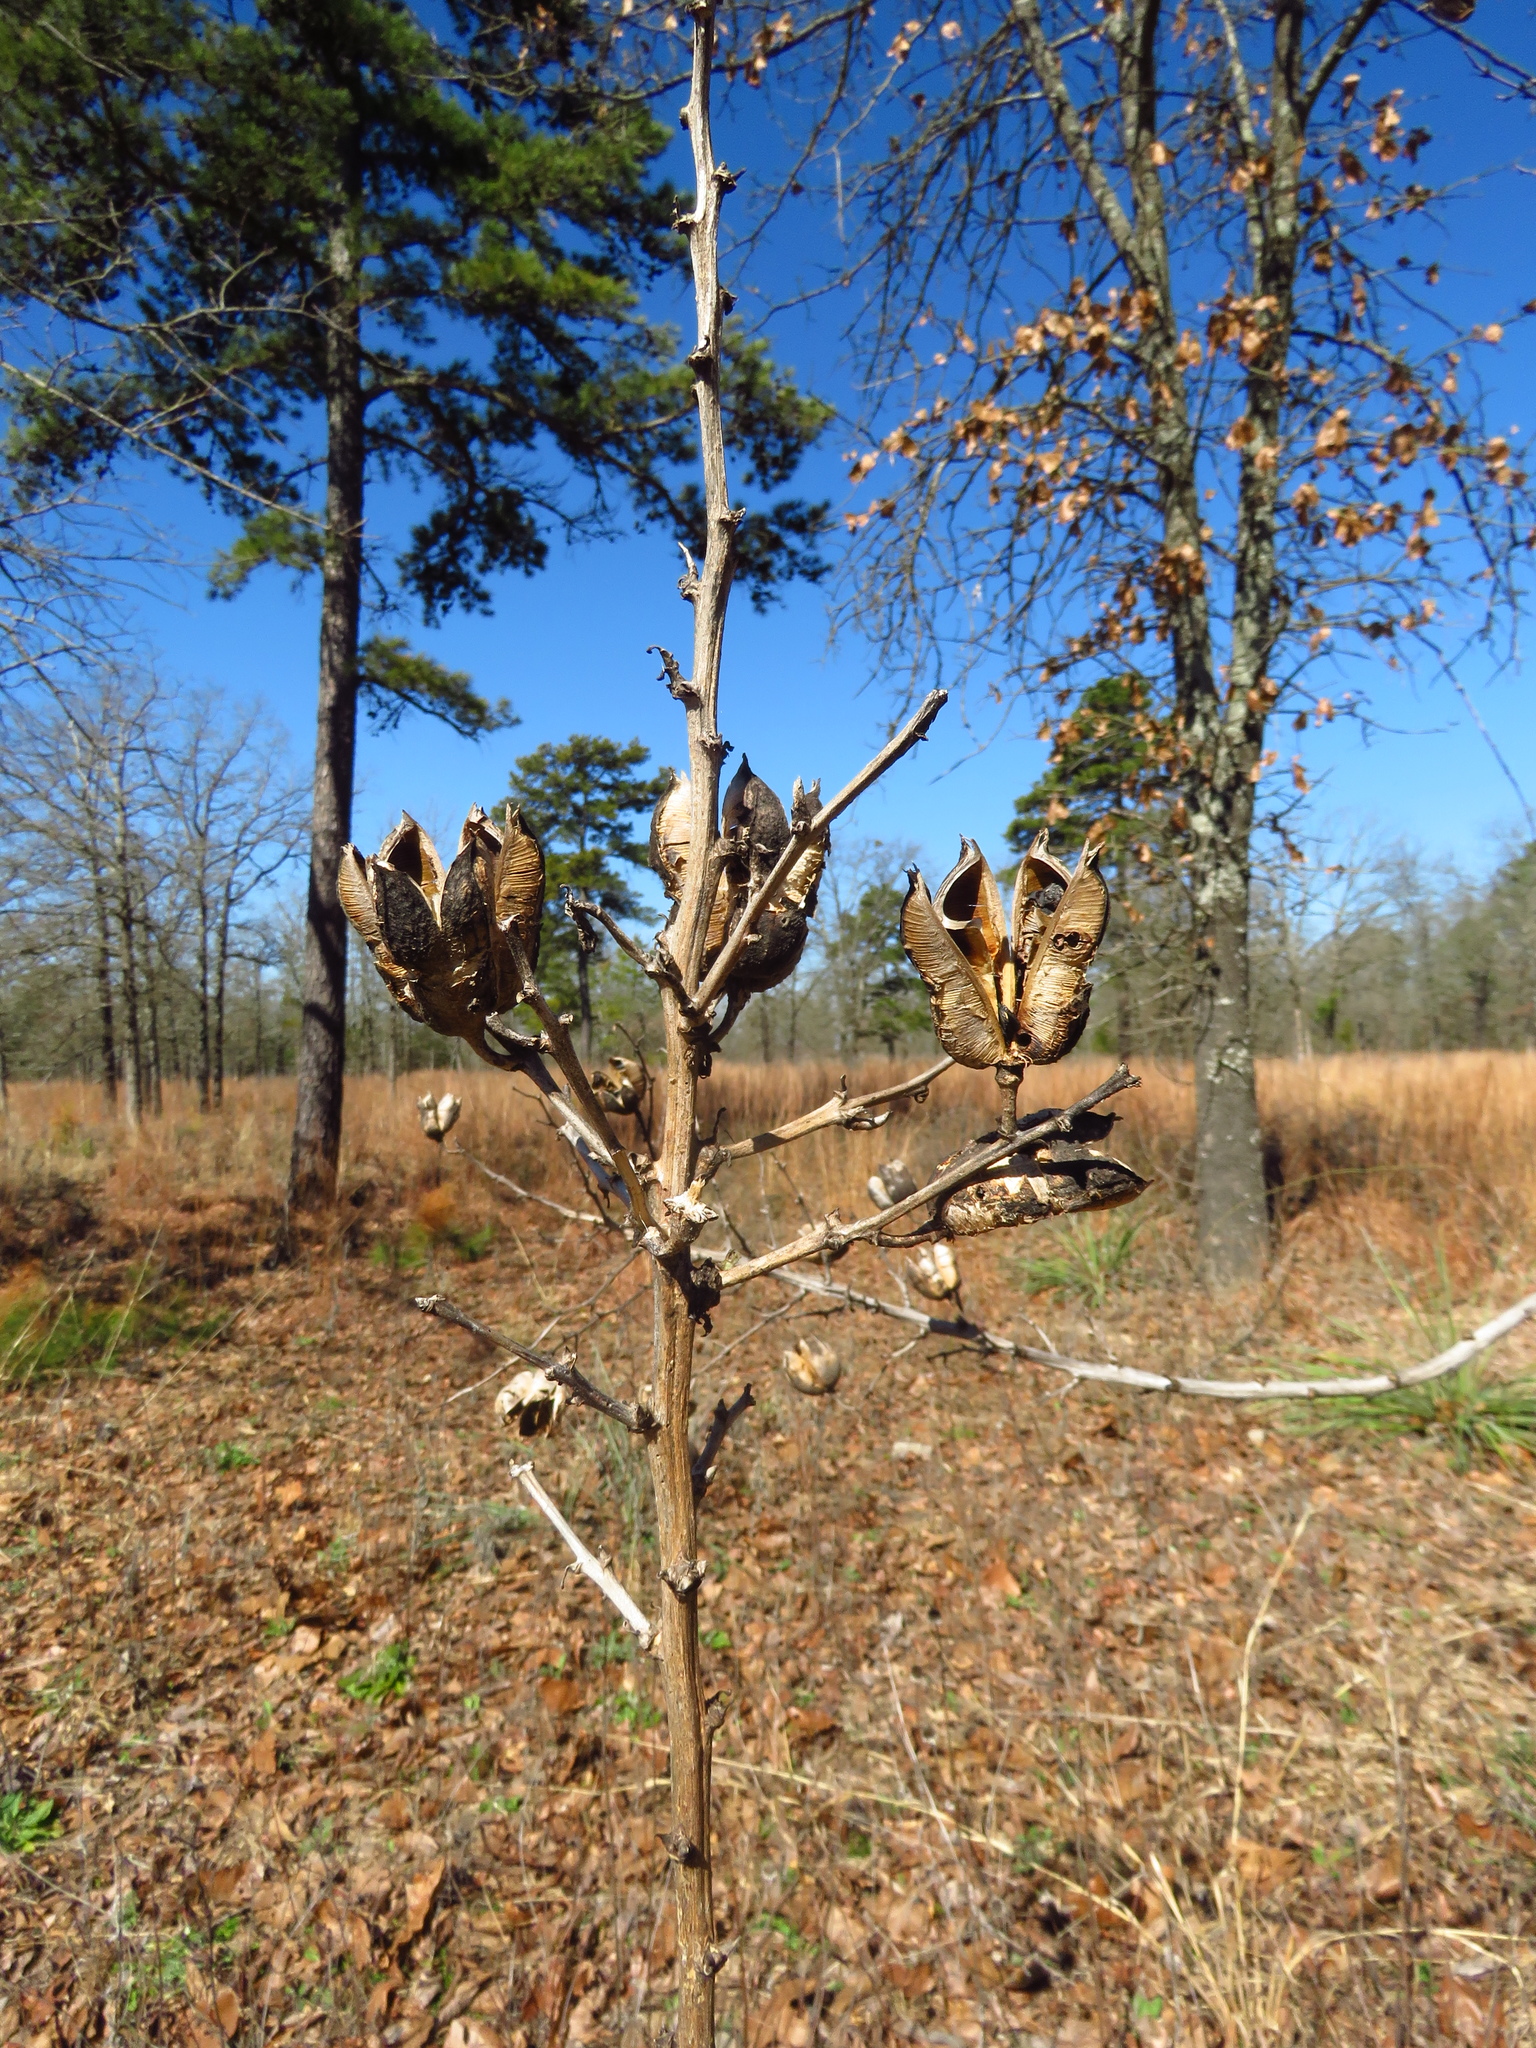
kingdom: Plantae
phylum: Tracheophyta
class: Liliopsida
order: Asparagales
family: Asparagaceae
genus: Yucca
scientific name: Yucca flaccida
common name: Adam's-needle
